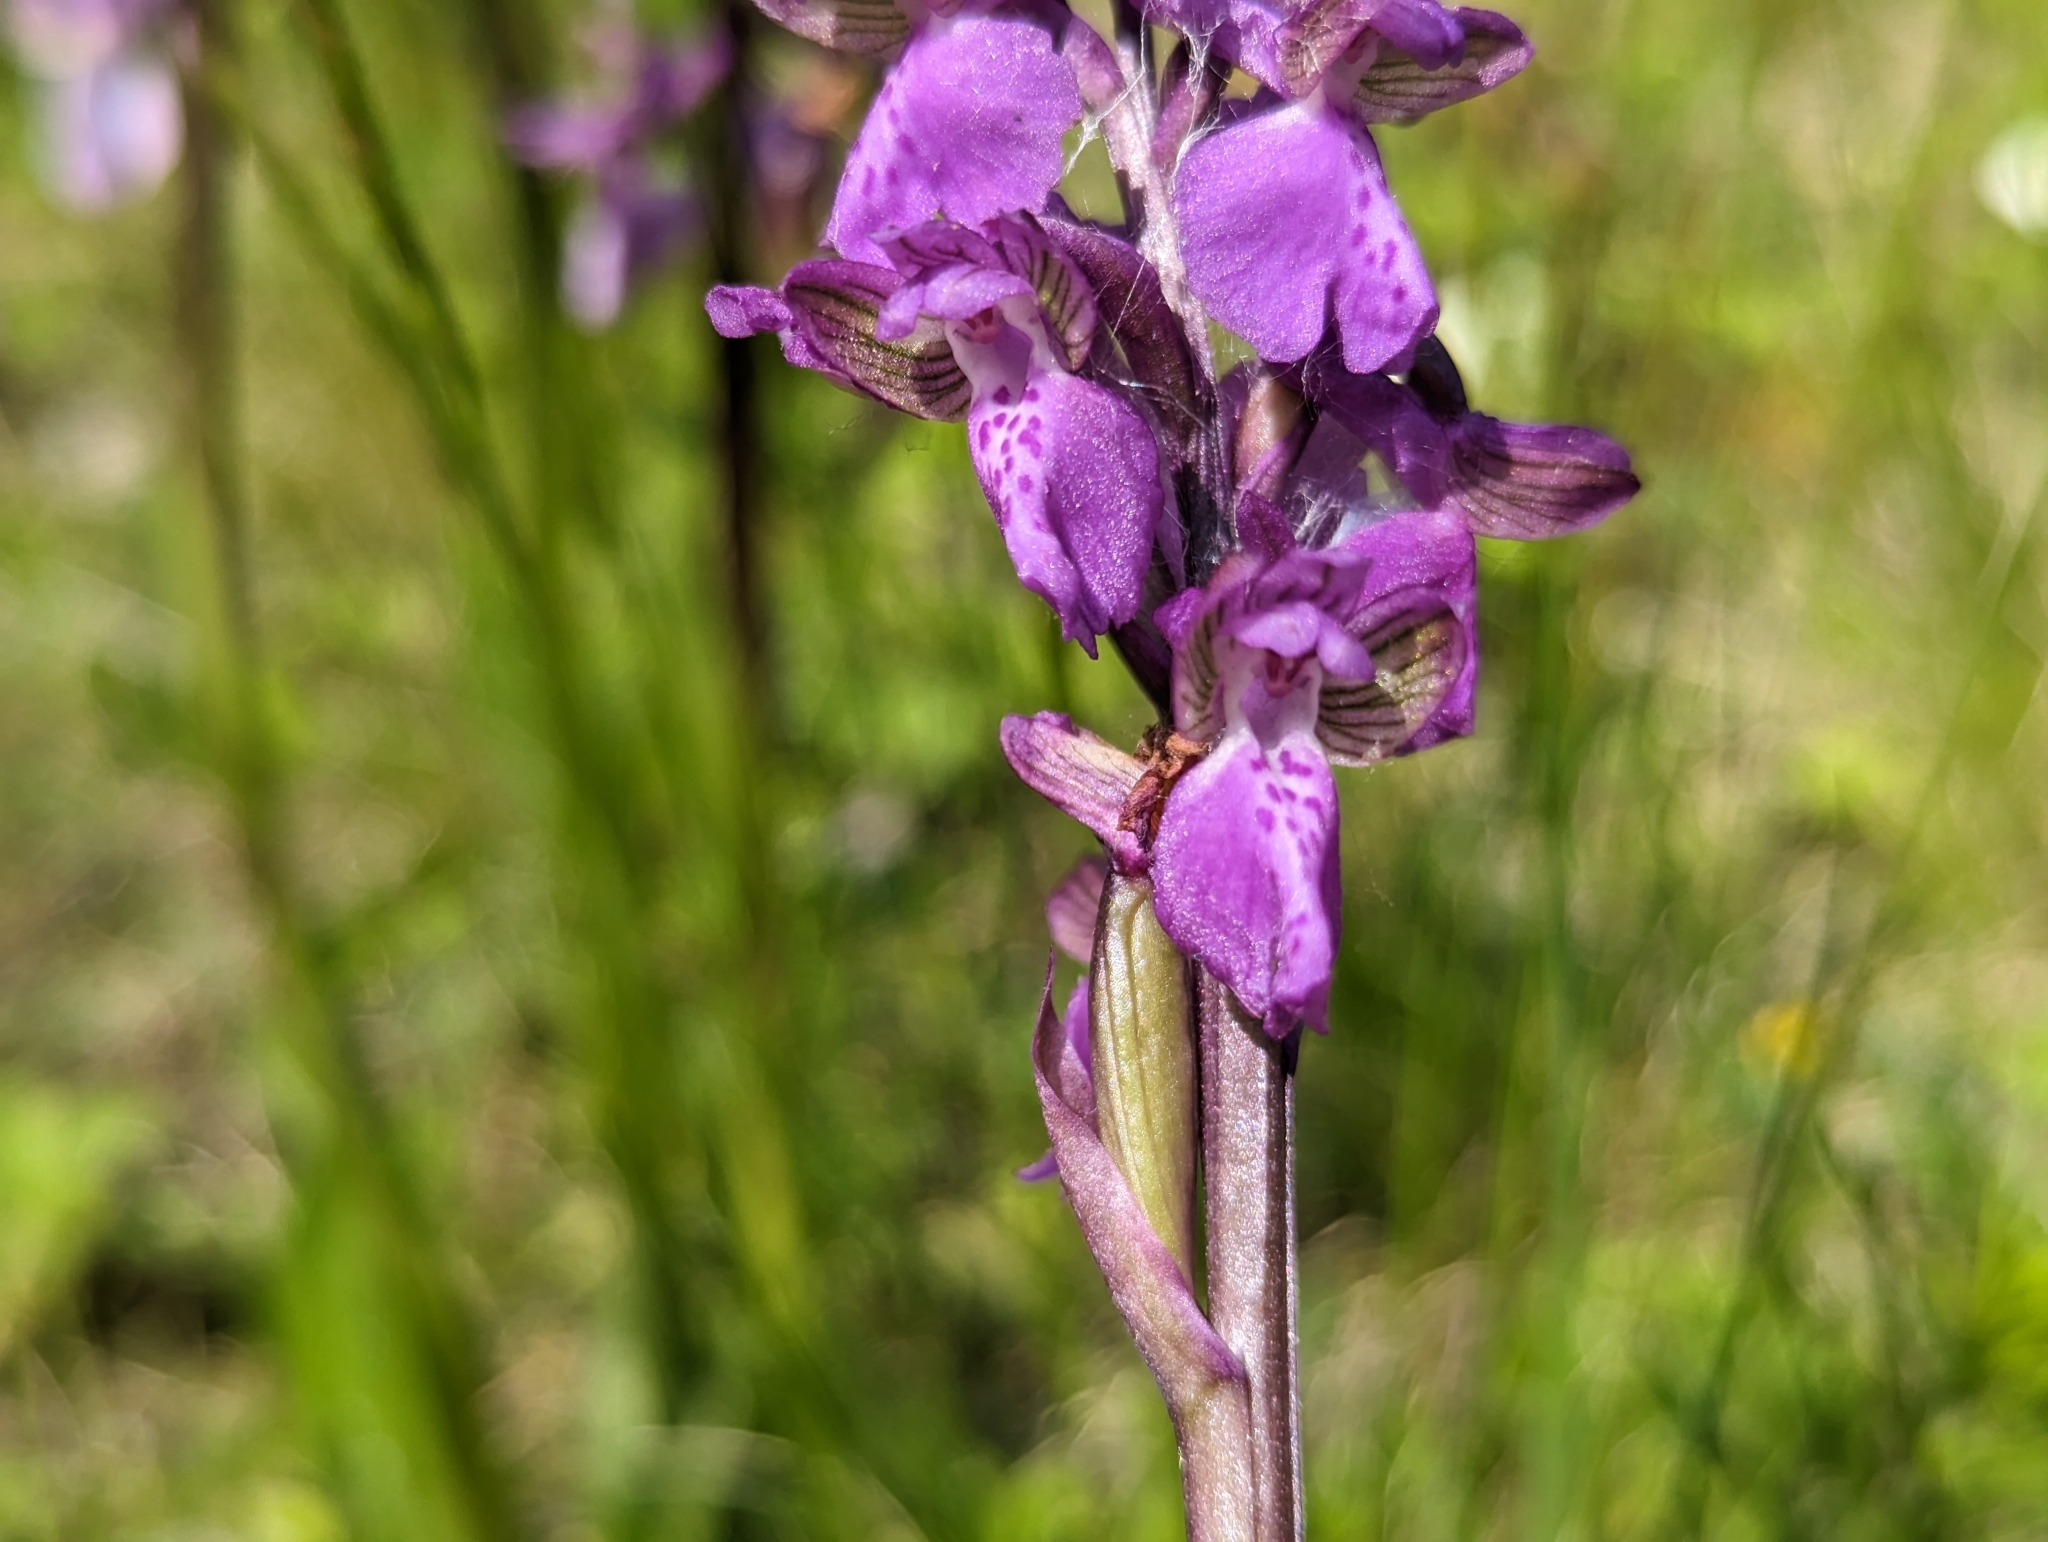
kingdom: Plantae
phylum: Tracheophyta
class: Liliopsida
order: Asparagales
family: Orchidaceae
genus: Anacamptis
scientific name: Anacamptis morio
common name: Green-winged orchid
